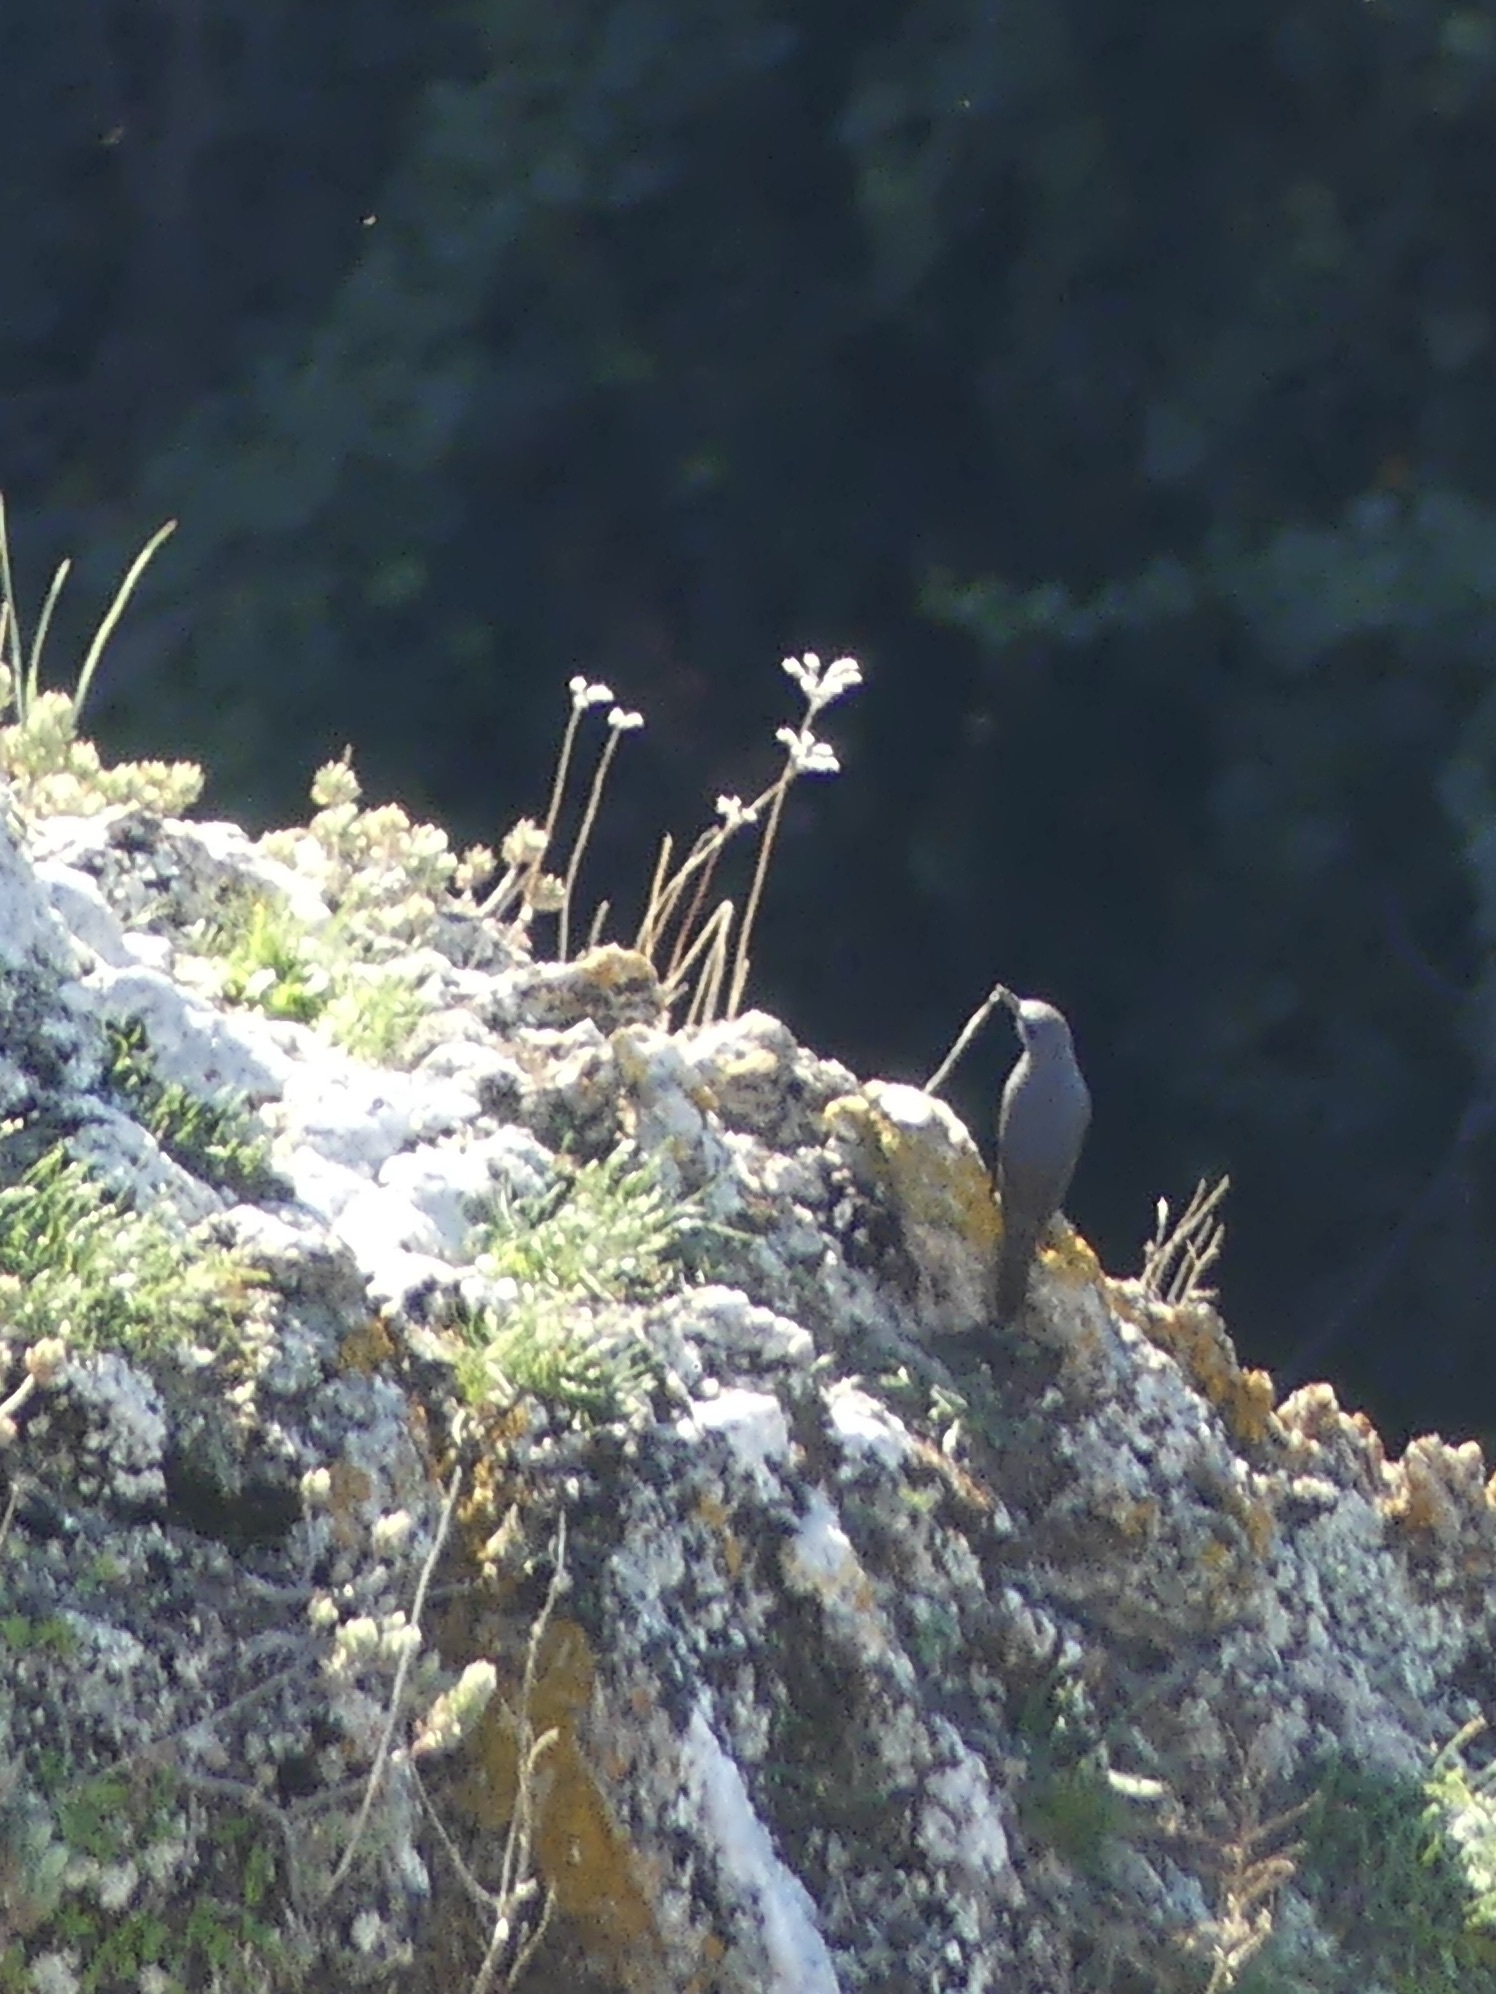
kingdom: Animalia
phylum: Chordata
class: Aves
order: Passeriformes
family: Muscicapidae
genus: Monticola
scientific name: Monticola solitarius
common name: Blue rock thrush
